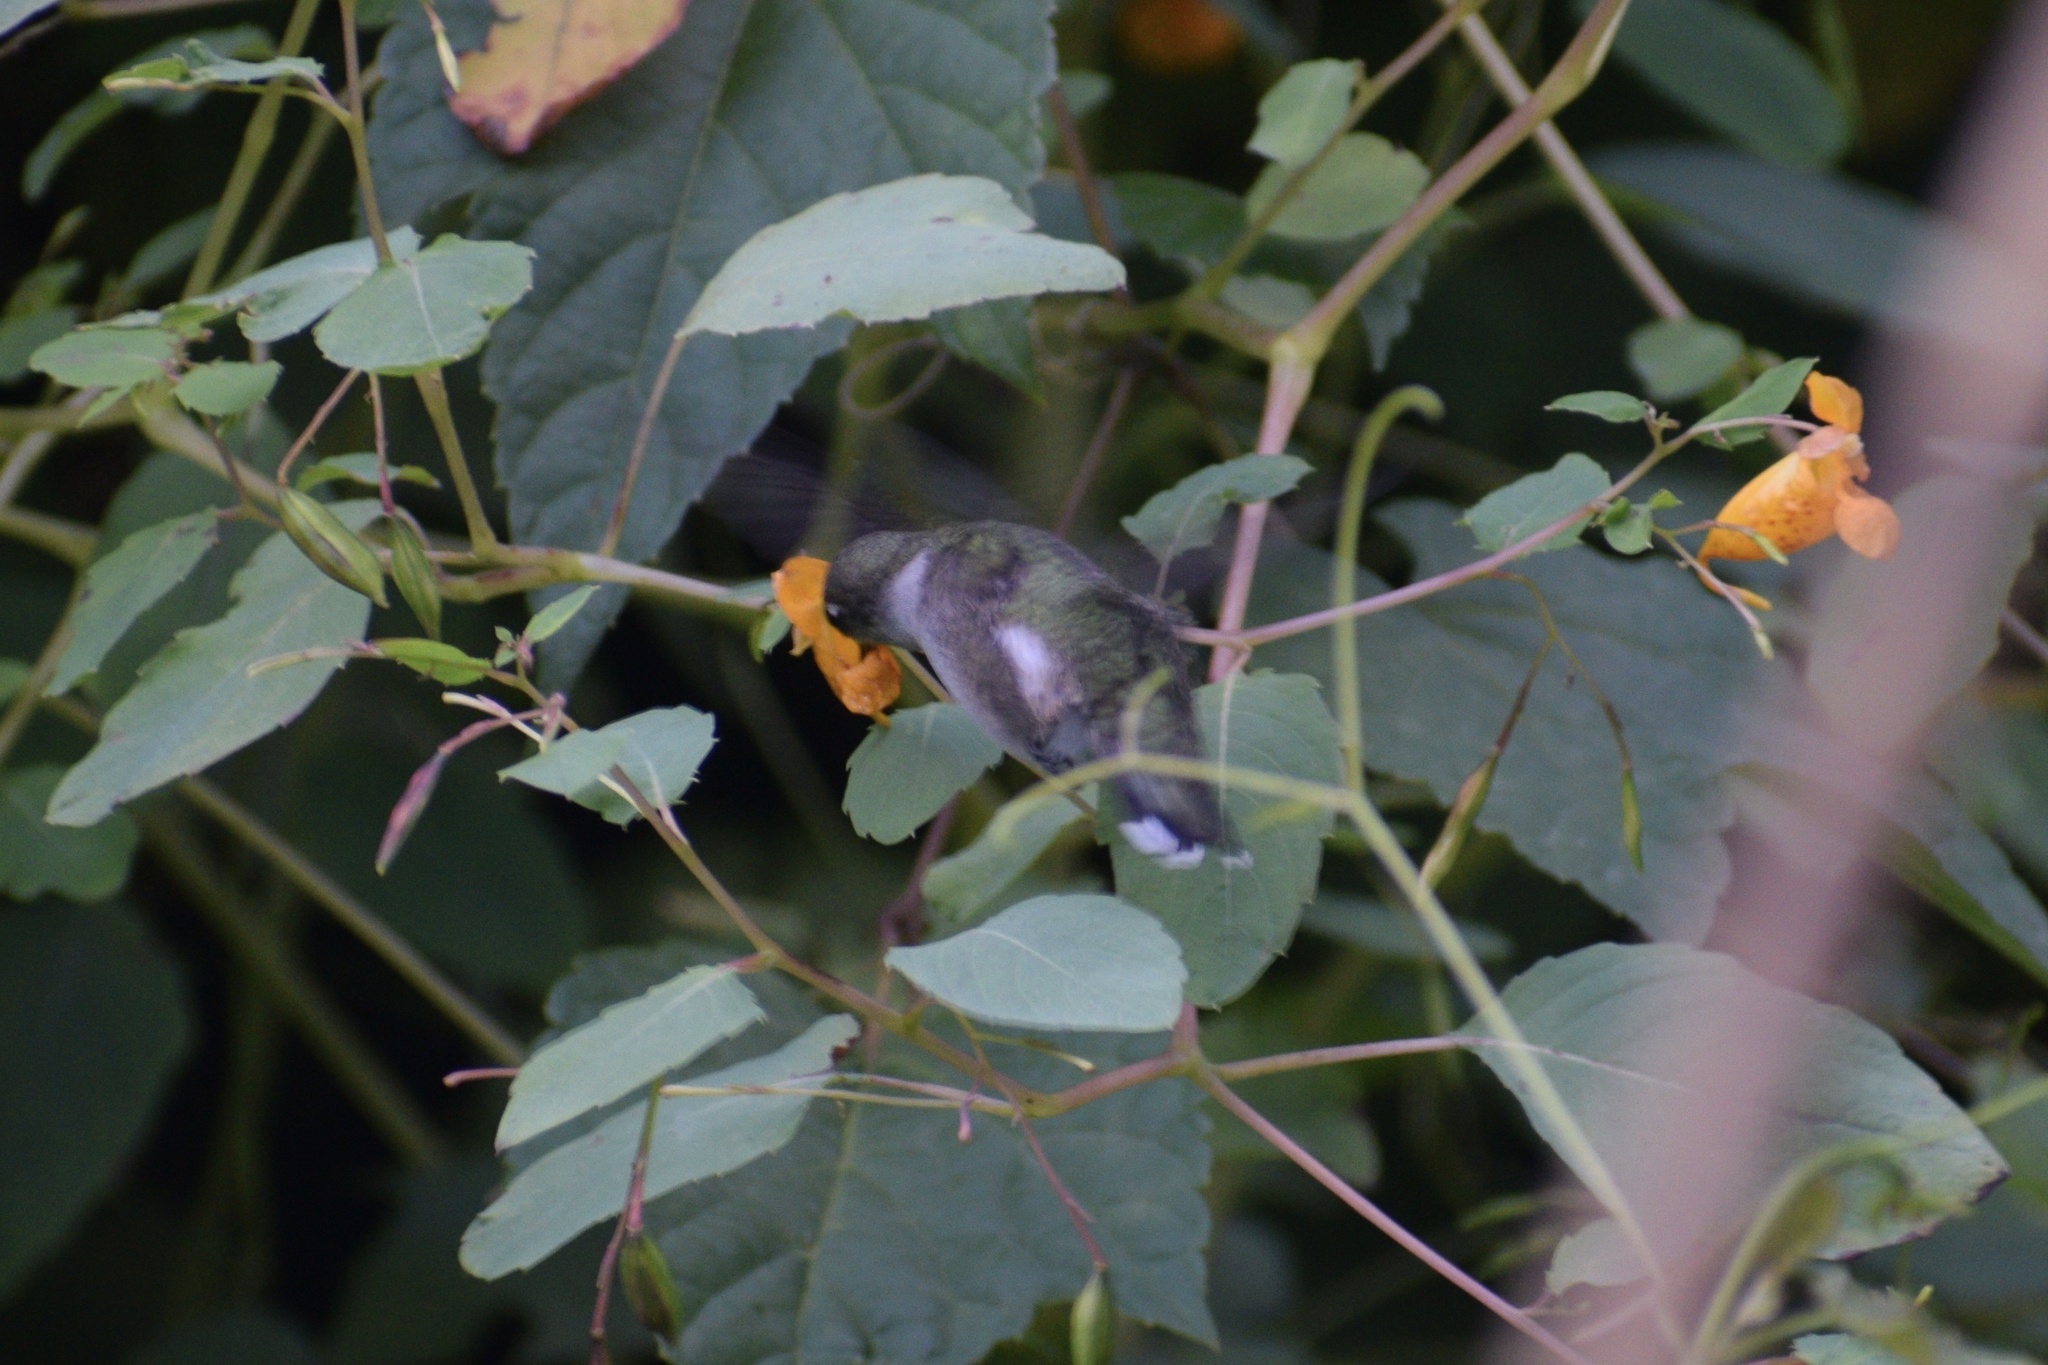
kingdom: Animalia
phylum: Chordata
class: Aves
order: Apodiformes
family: Trochilidae
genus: Archilochus
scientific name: Archilochus colubris
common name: Ruby-throated hummingbird
